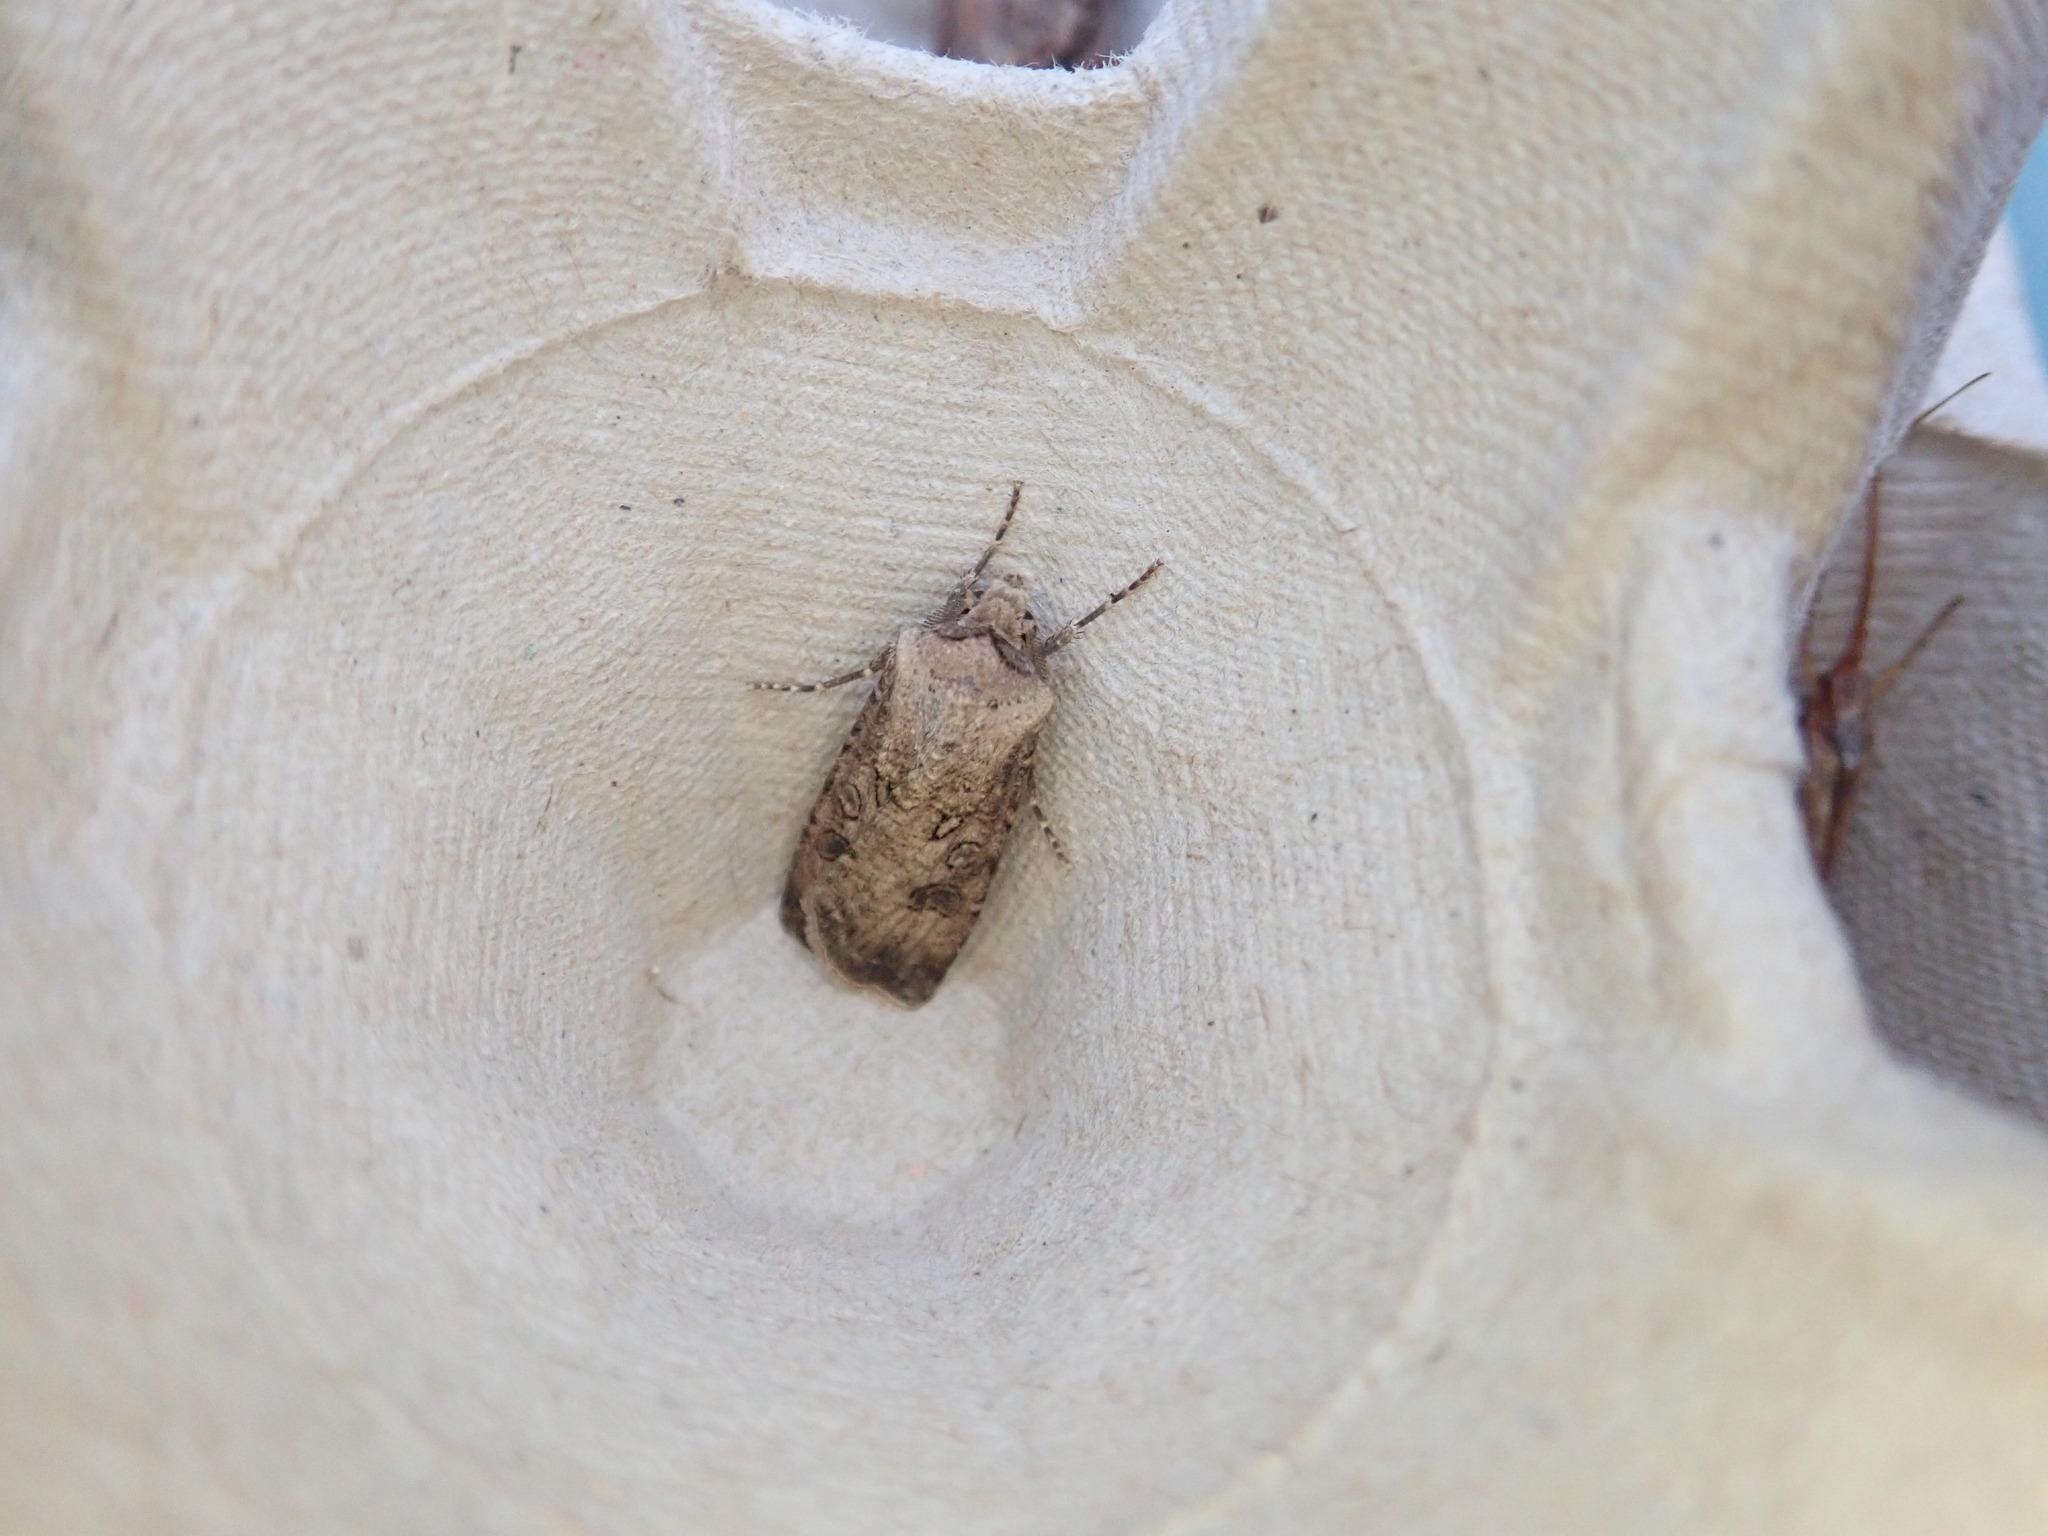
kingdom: Animalia
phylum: Arthropoda
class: Insecta
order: Lepidoptera
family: Noctuidae
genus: Agrotis
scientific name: Agrotis segetum
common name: Turnip moth
